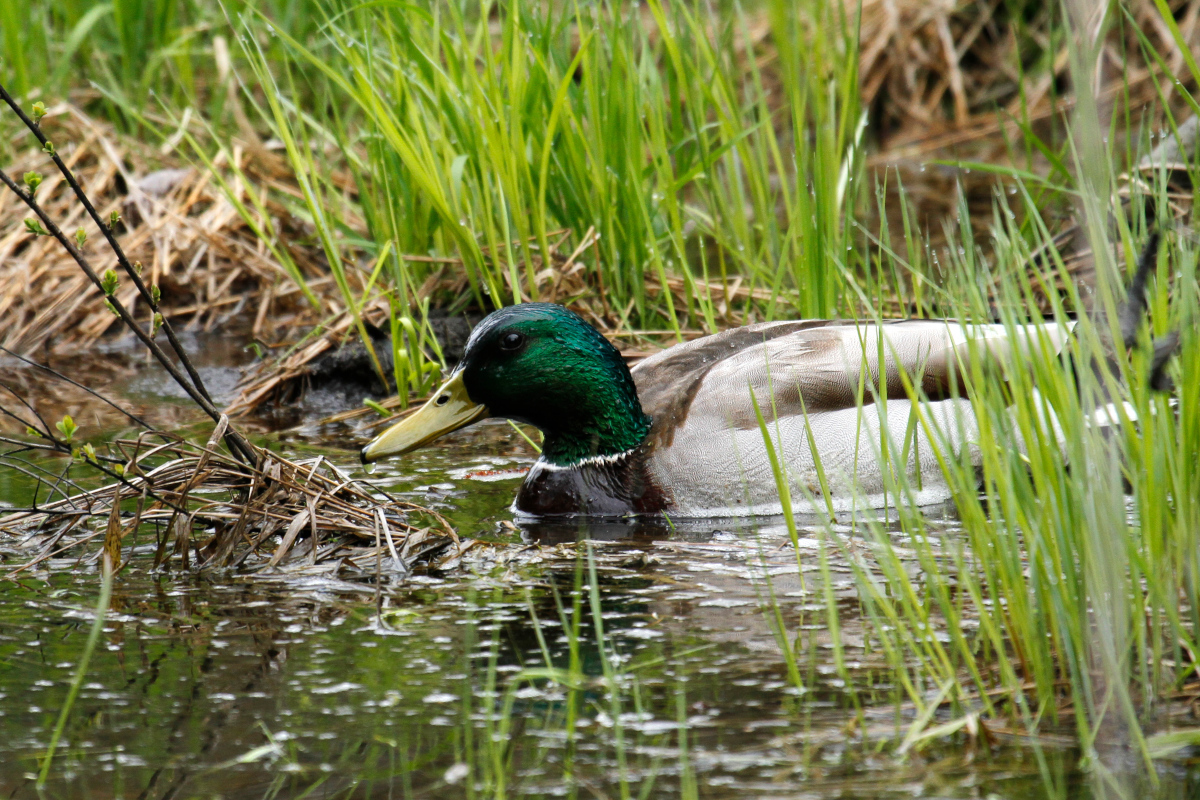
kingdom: Animalia
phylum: Chordata
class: Aves
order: Anseriformes
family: Anatidae
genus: Anas
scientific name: Anas platyrhynchos
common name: Mallard
